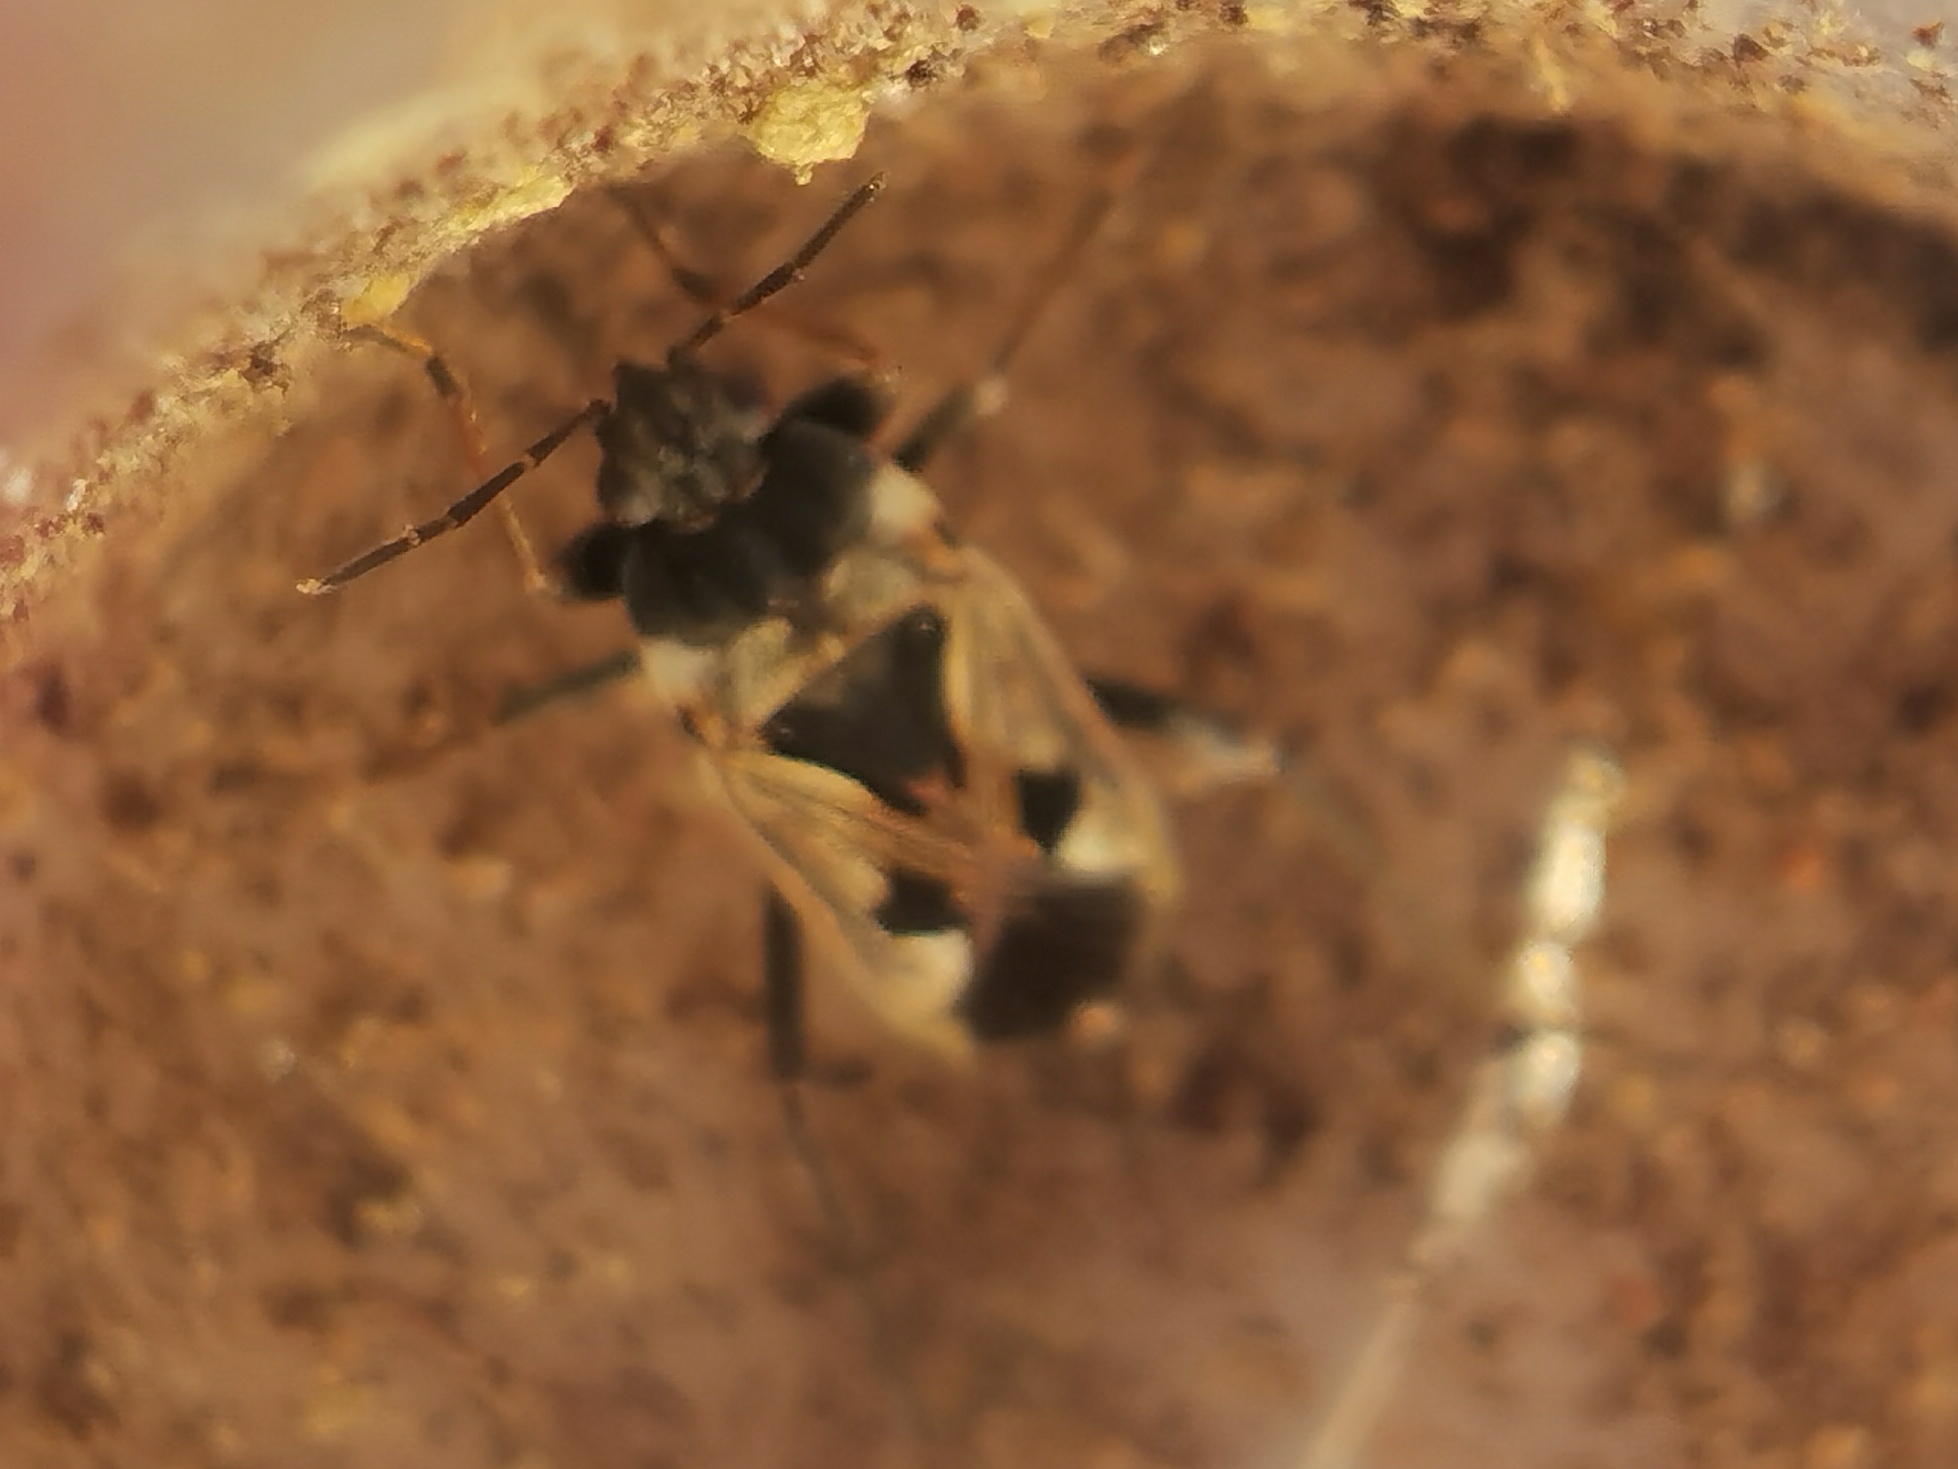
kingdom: Animalia
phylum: Arthropoda
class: Insecta
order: Hemiptera
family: Rhyparochromidae
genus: Rhyparochromus
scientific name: Rhyparochromus vulgaris
